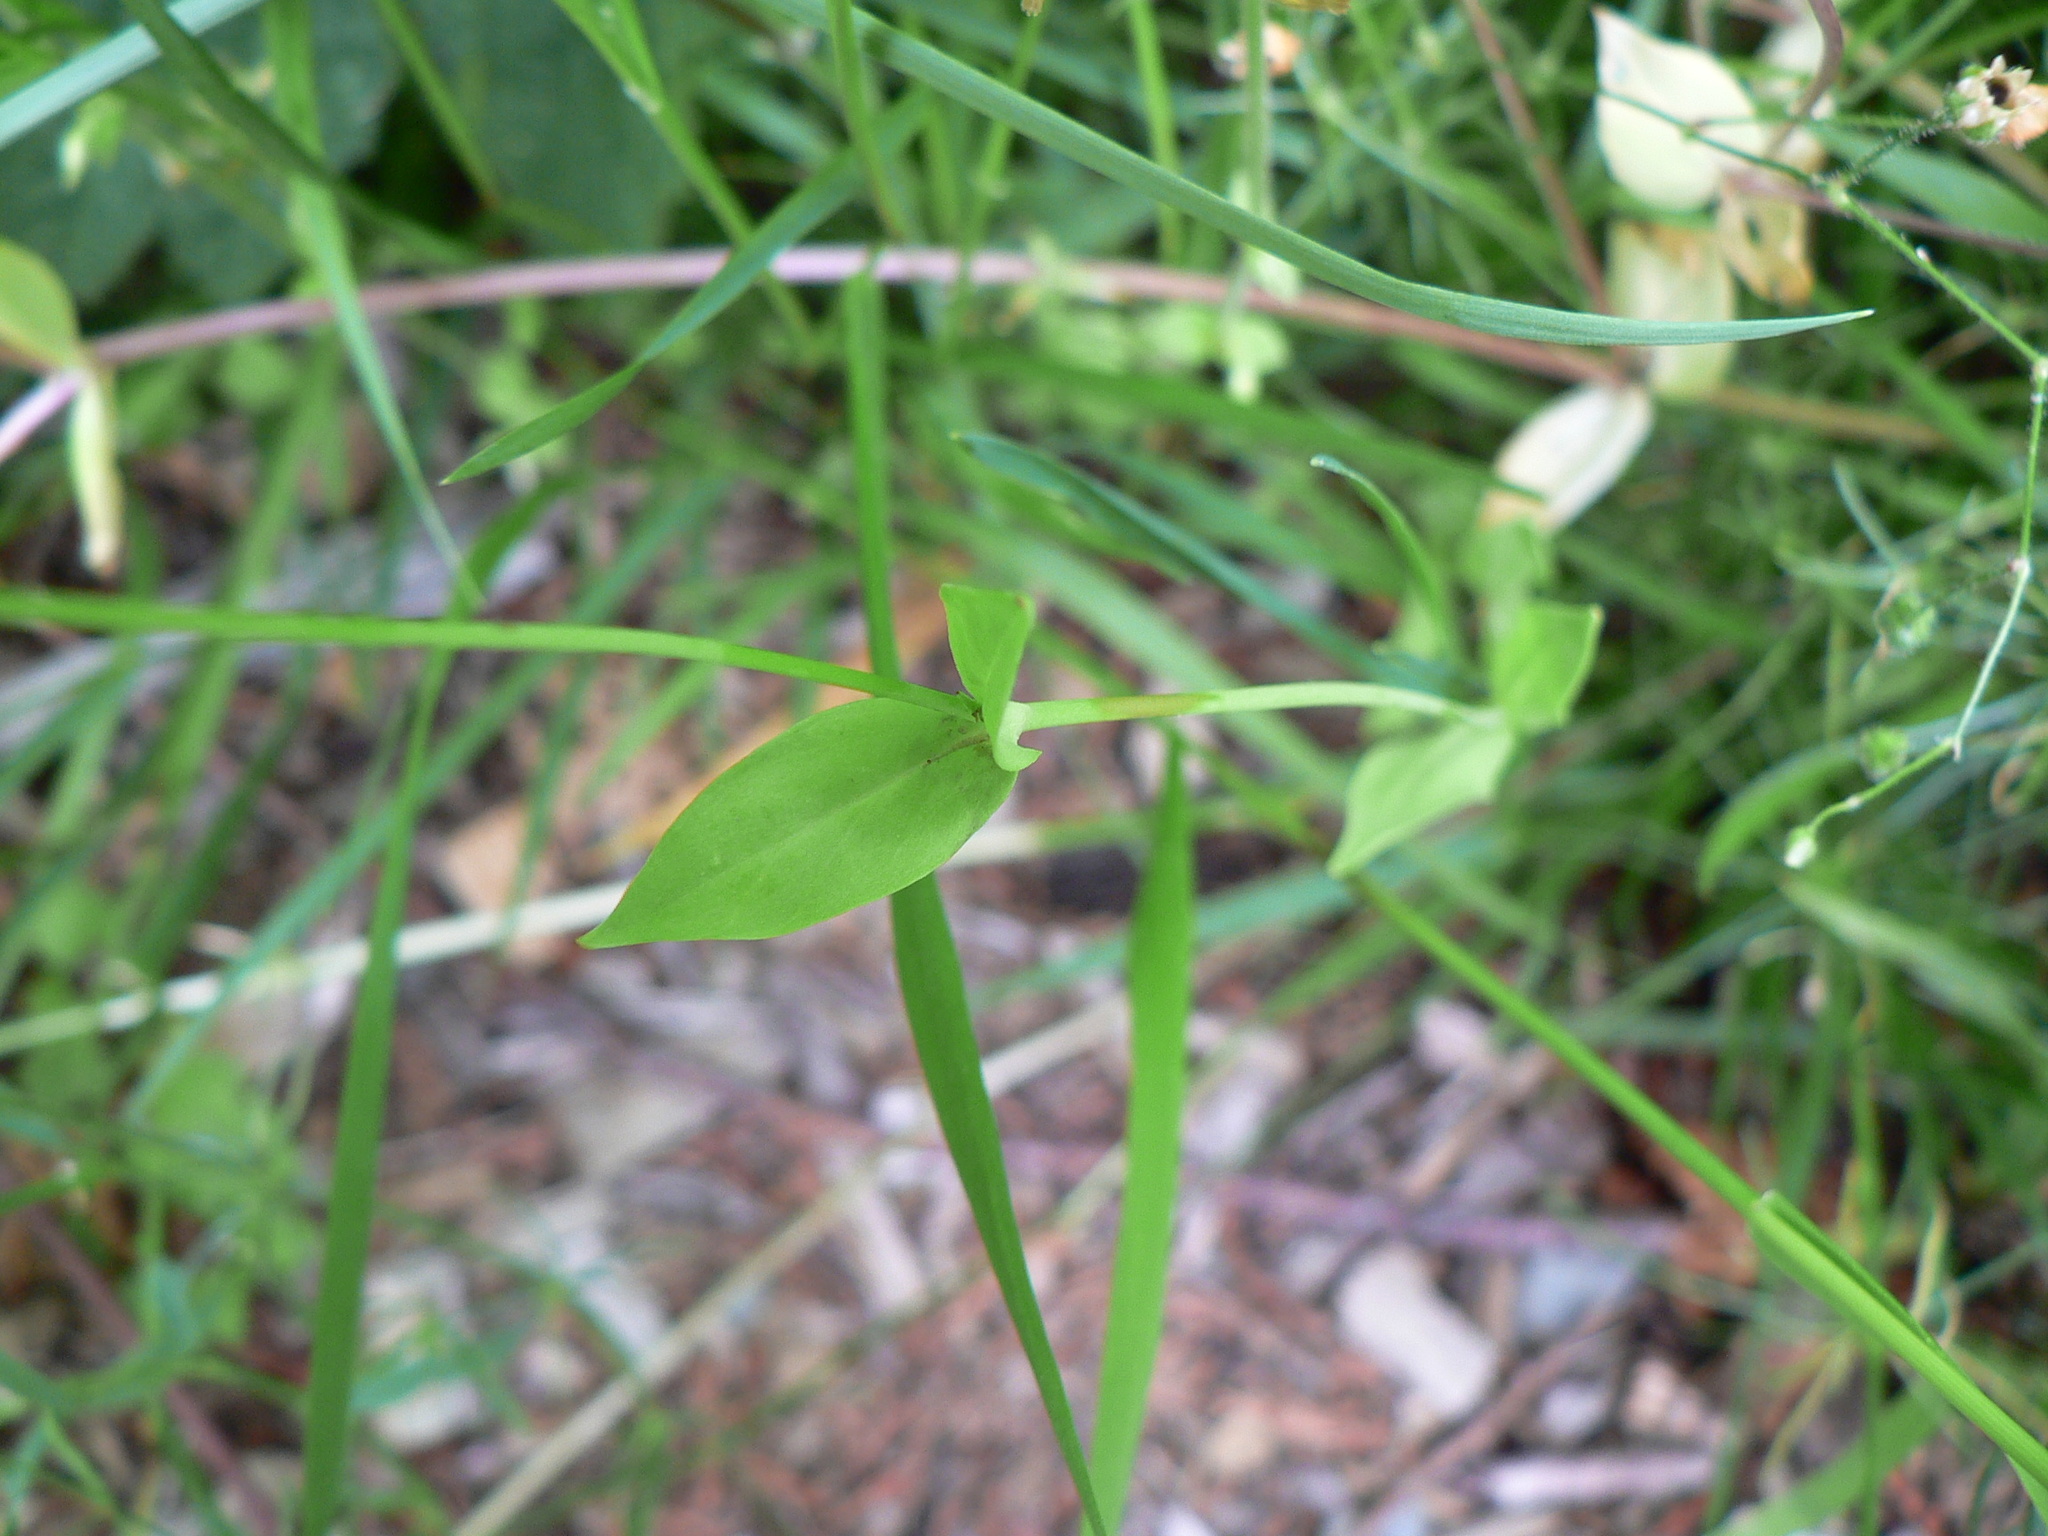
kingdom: Plantae
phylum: Tracheophyta
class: Magnoliopsida
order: Caryophyllales
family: Caryophyllaceae
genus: Atocion
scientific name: Atocion armeria
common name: Sweet william catchfly
